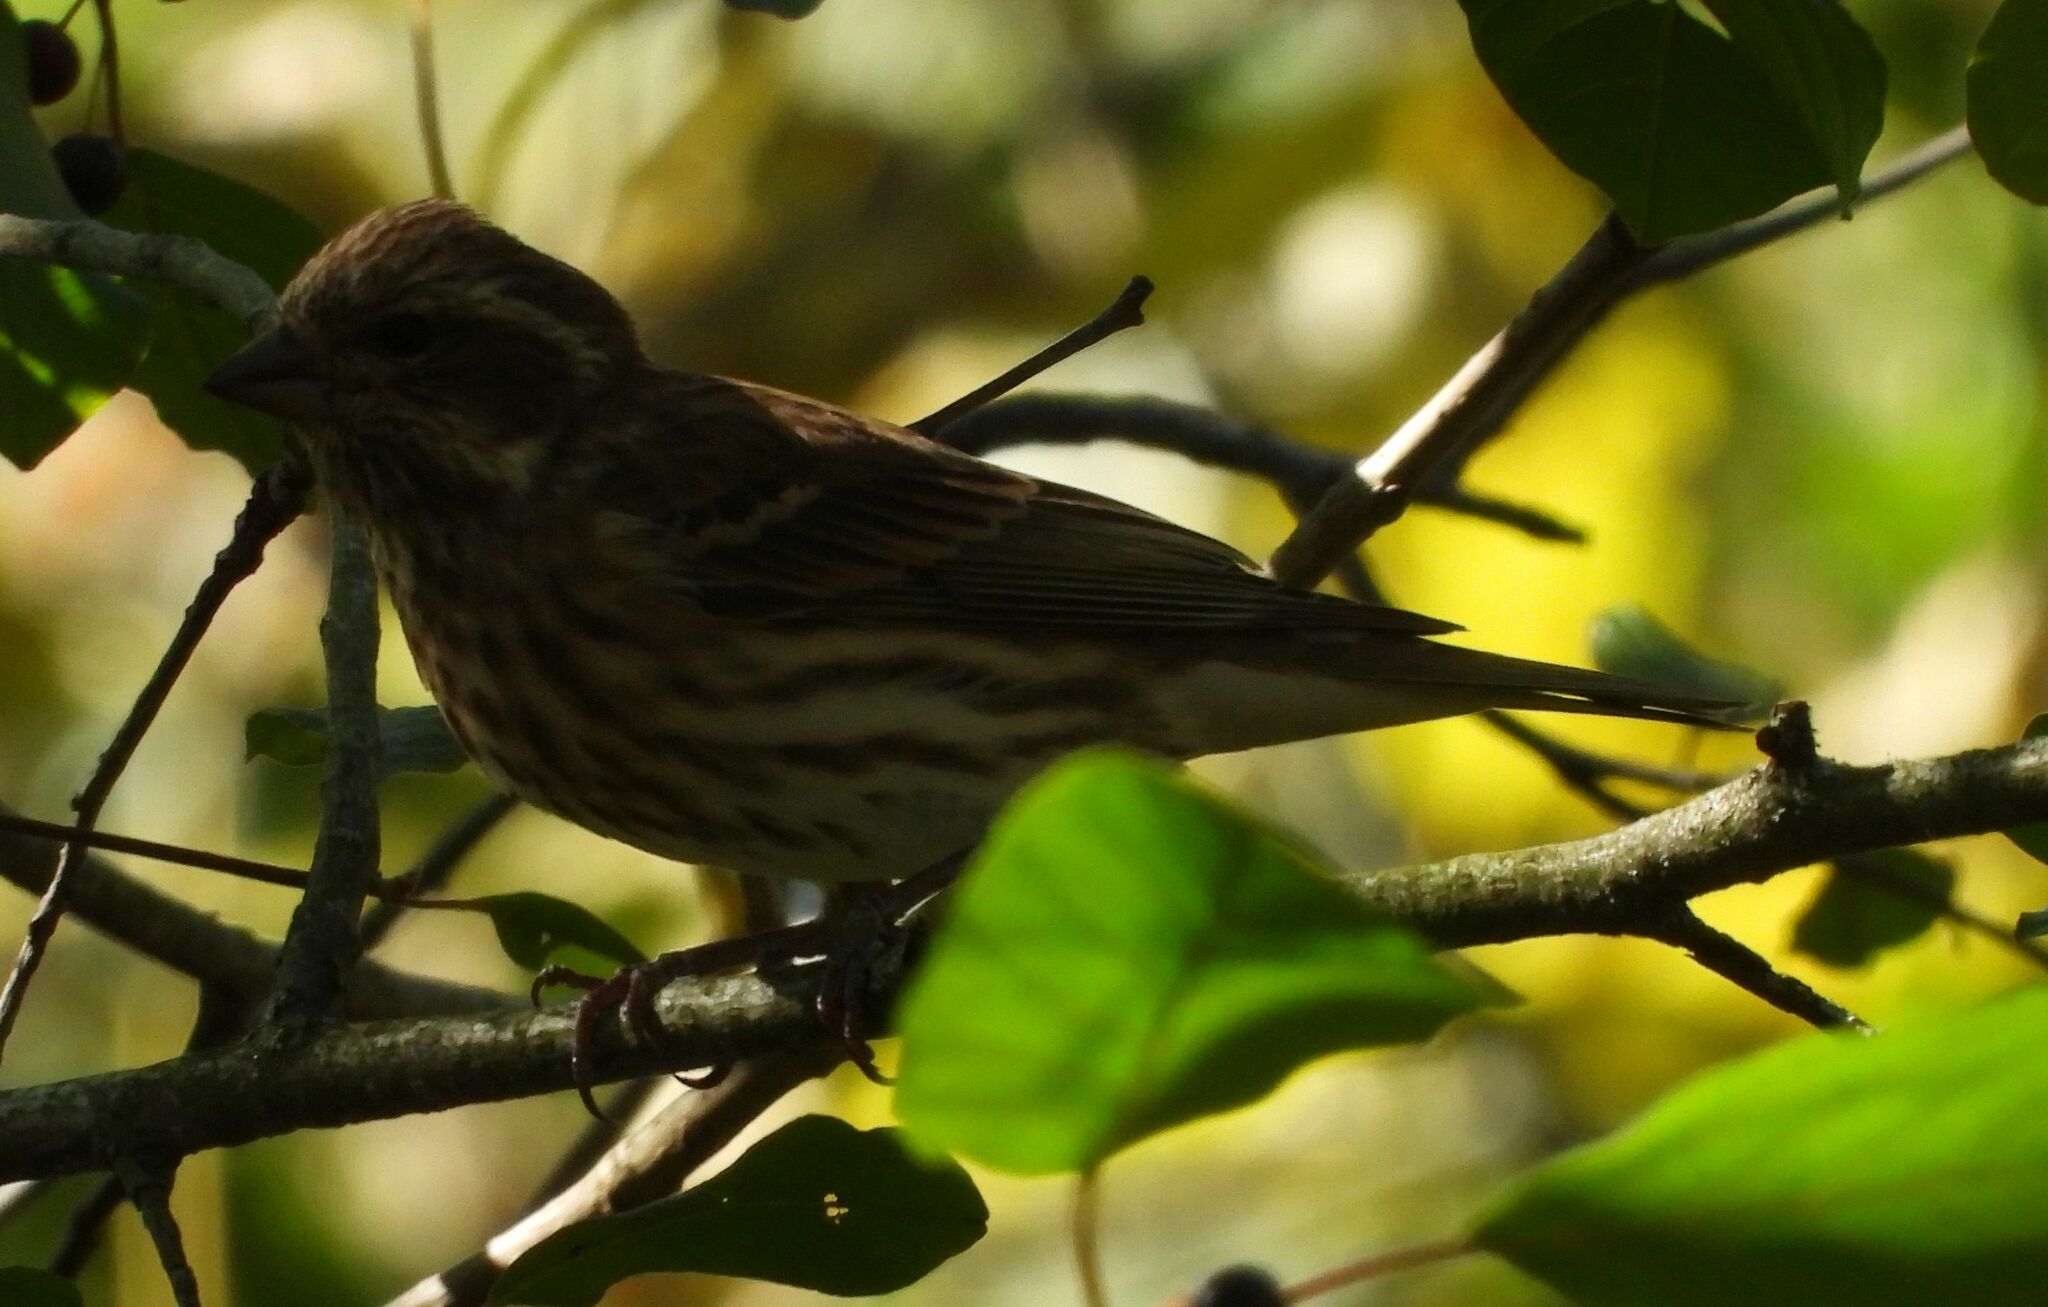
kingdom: Animalia
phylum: Chordata
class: Aves
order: Passeriformes
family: Fringillidae
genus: Haemorhous
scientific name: Haemorhous purpureus
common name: Purple finch
